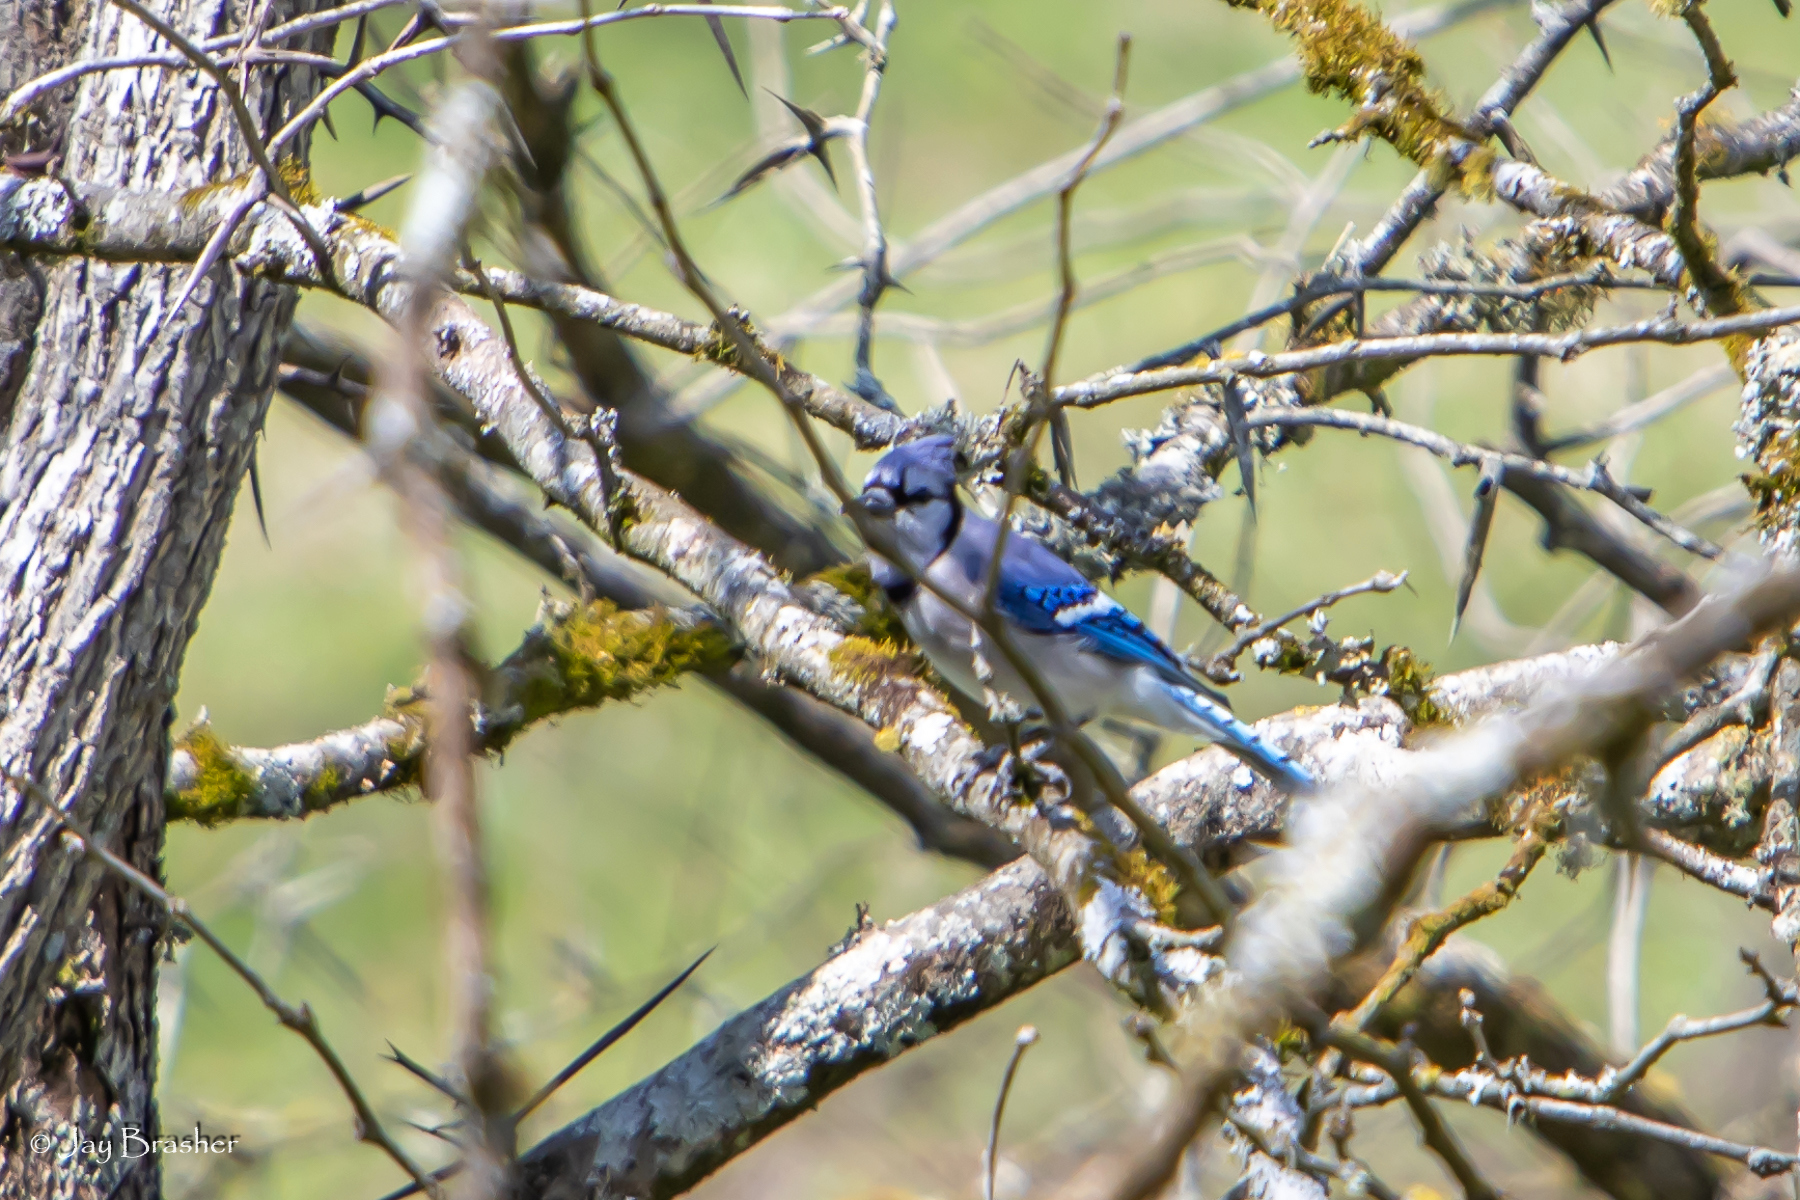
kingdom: Animalia
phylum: Chordata
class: Aves
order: Passeriformes
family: Corvidae
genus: Cyanocitta
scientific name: Cyanocitta cristata
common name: Blue jay
